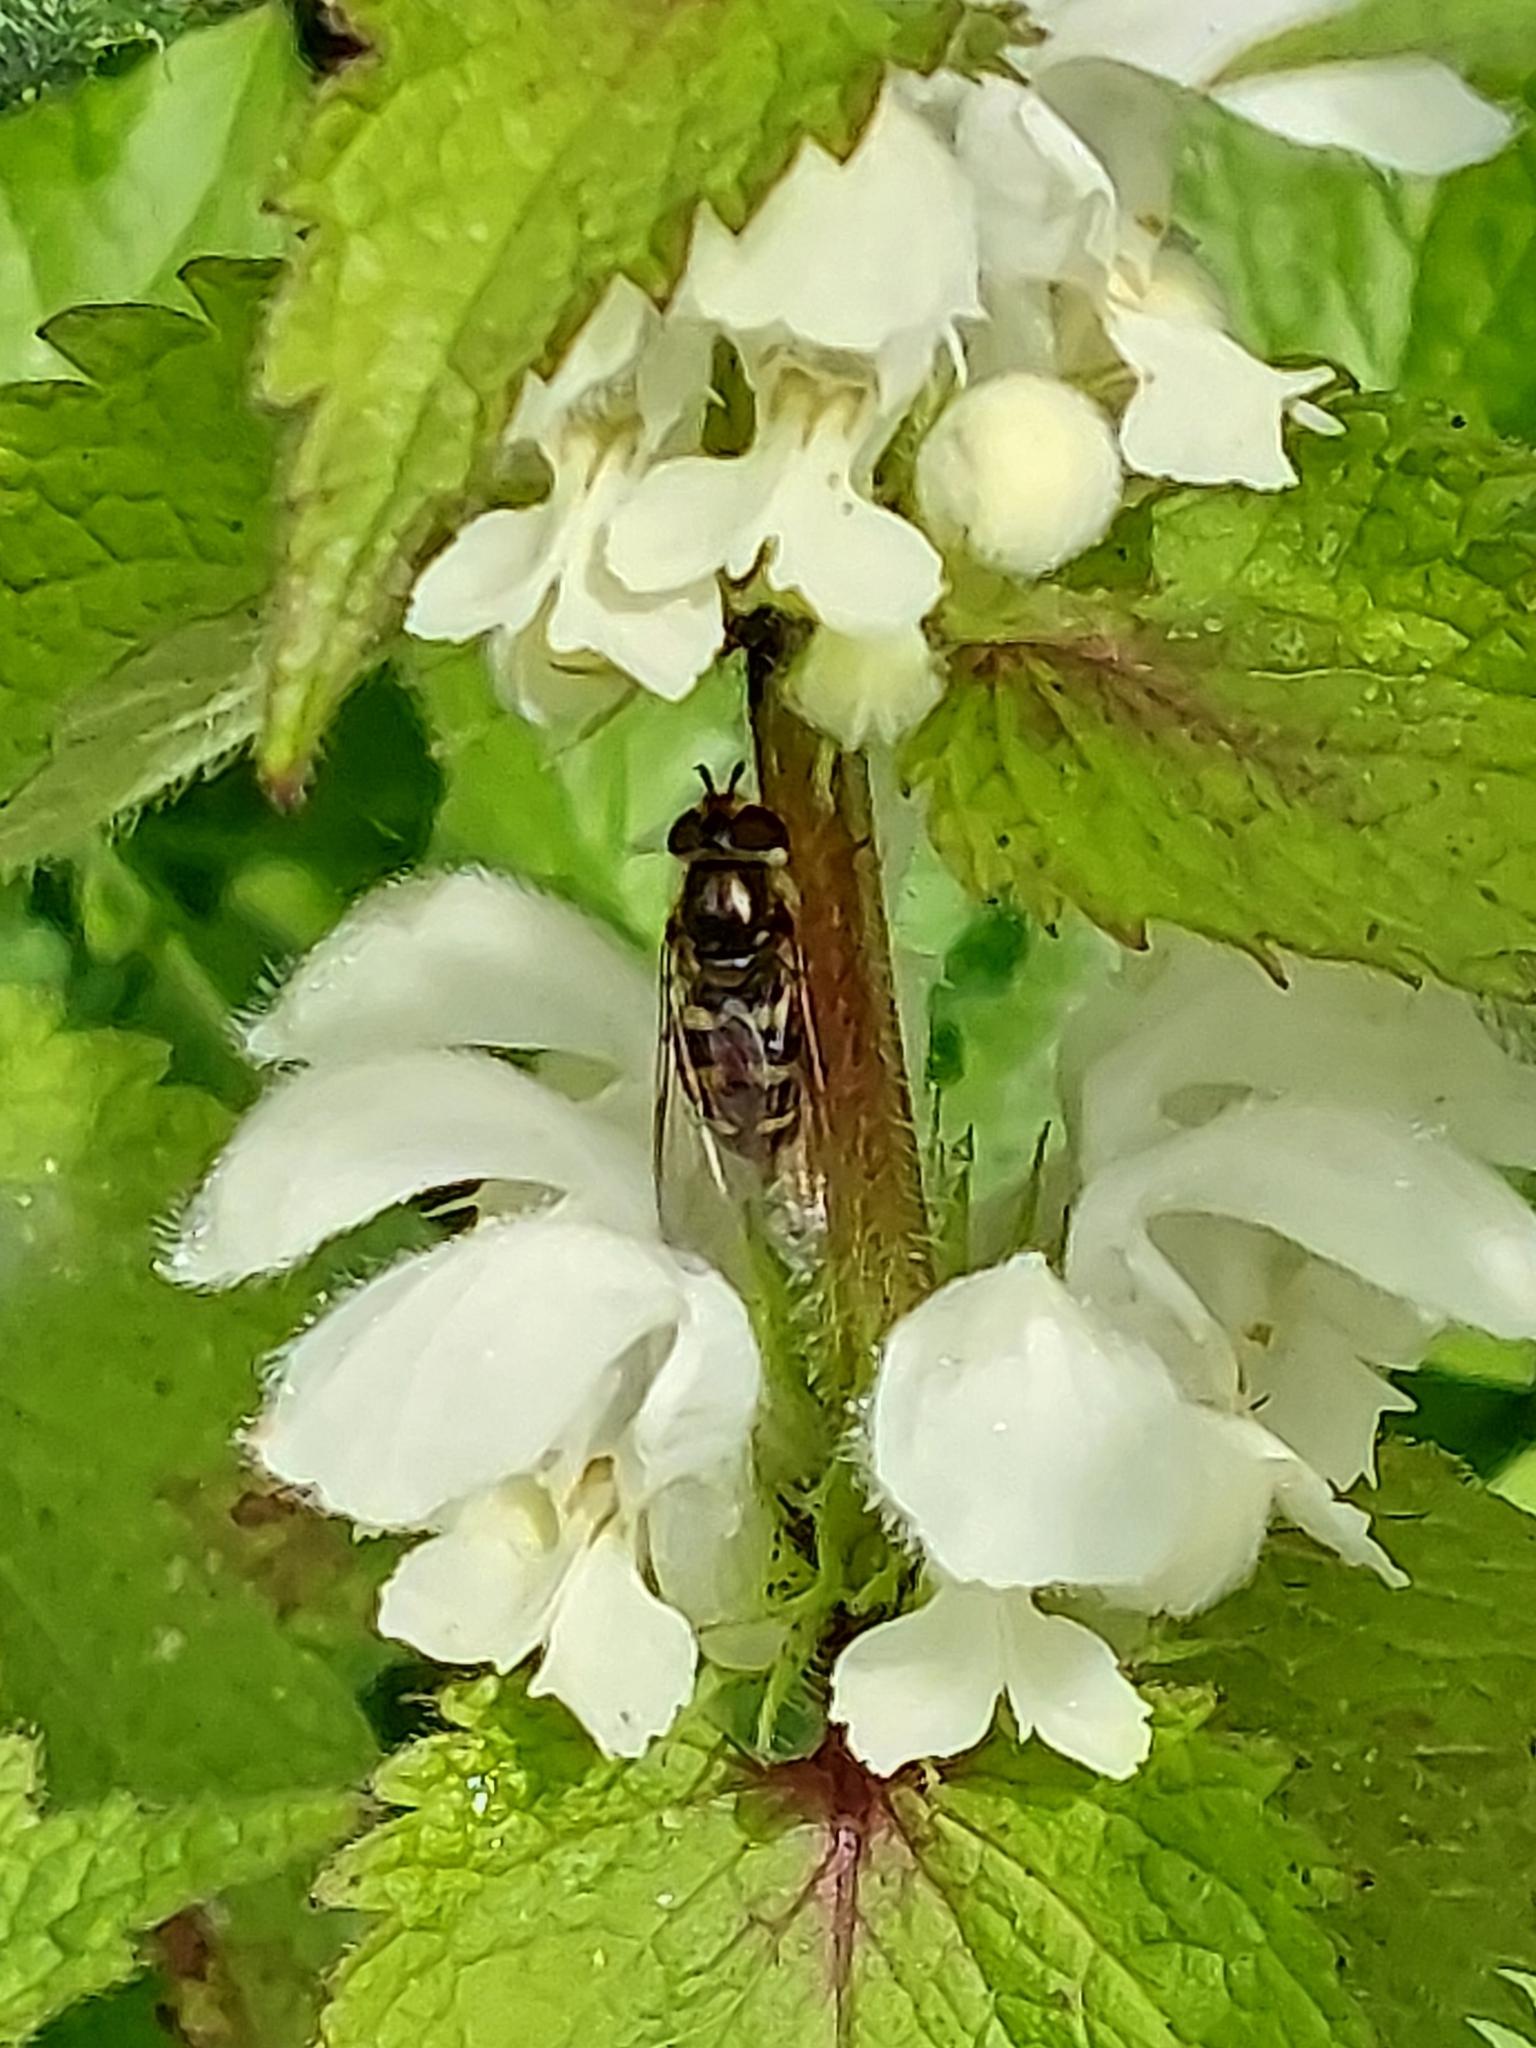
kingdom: Animalia
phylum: Arthropoda
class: Insecta
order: Diptera
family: Syrphidae
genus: Eupeodes
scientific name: Eupeodes
